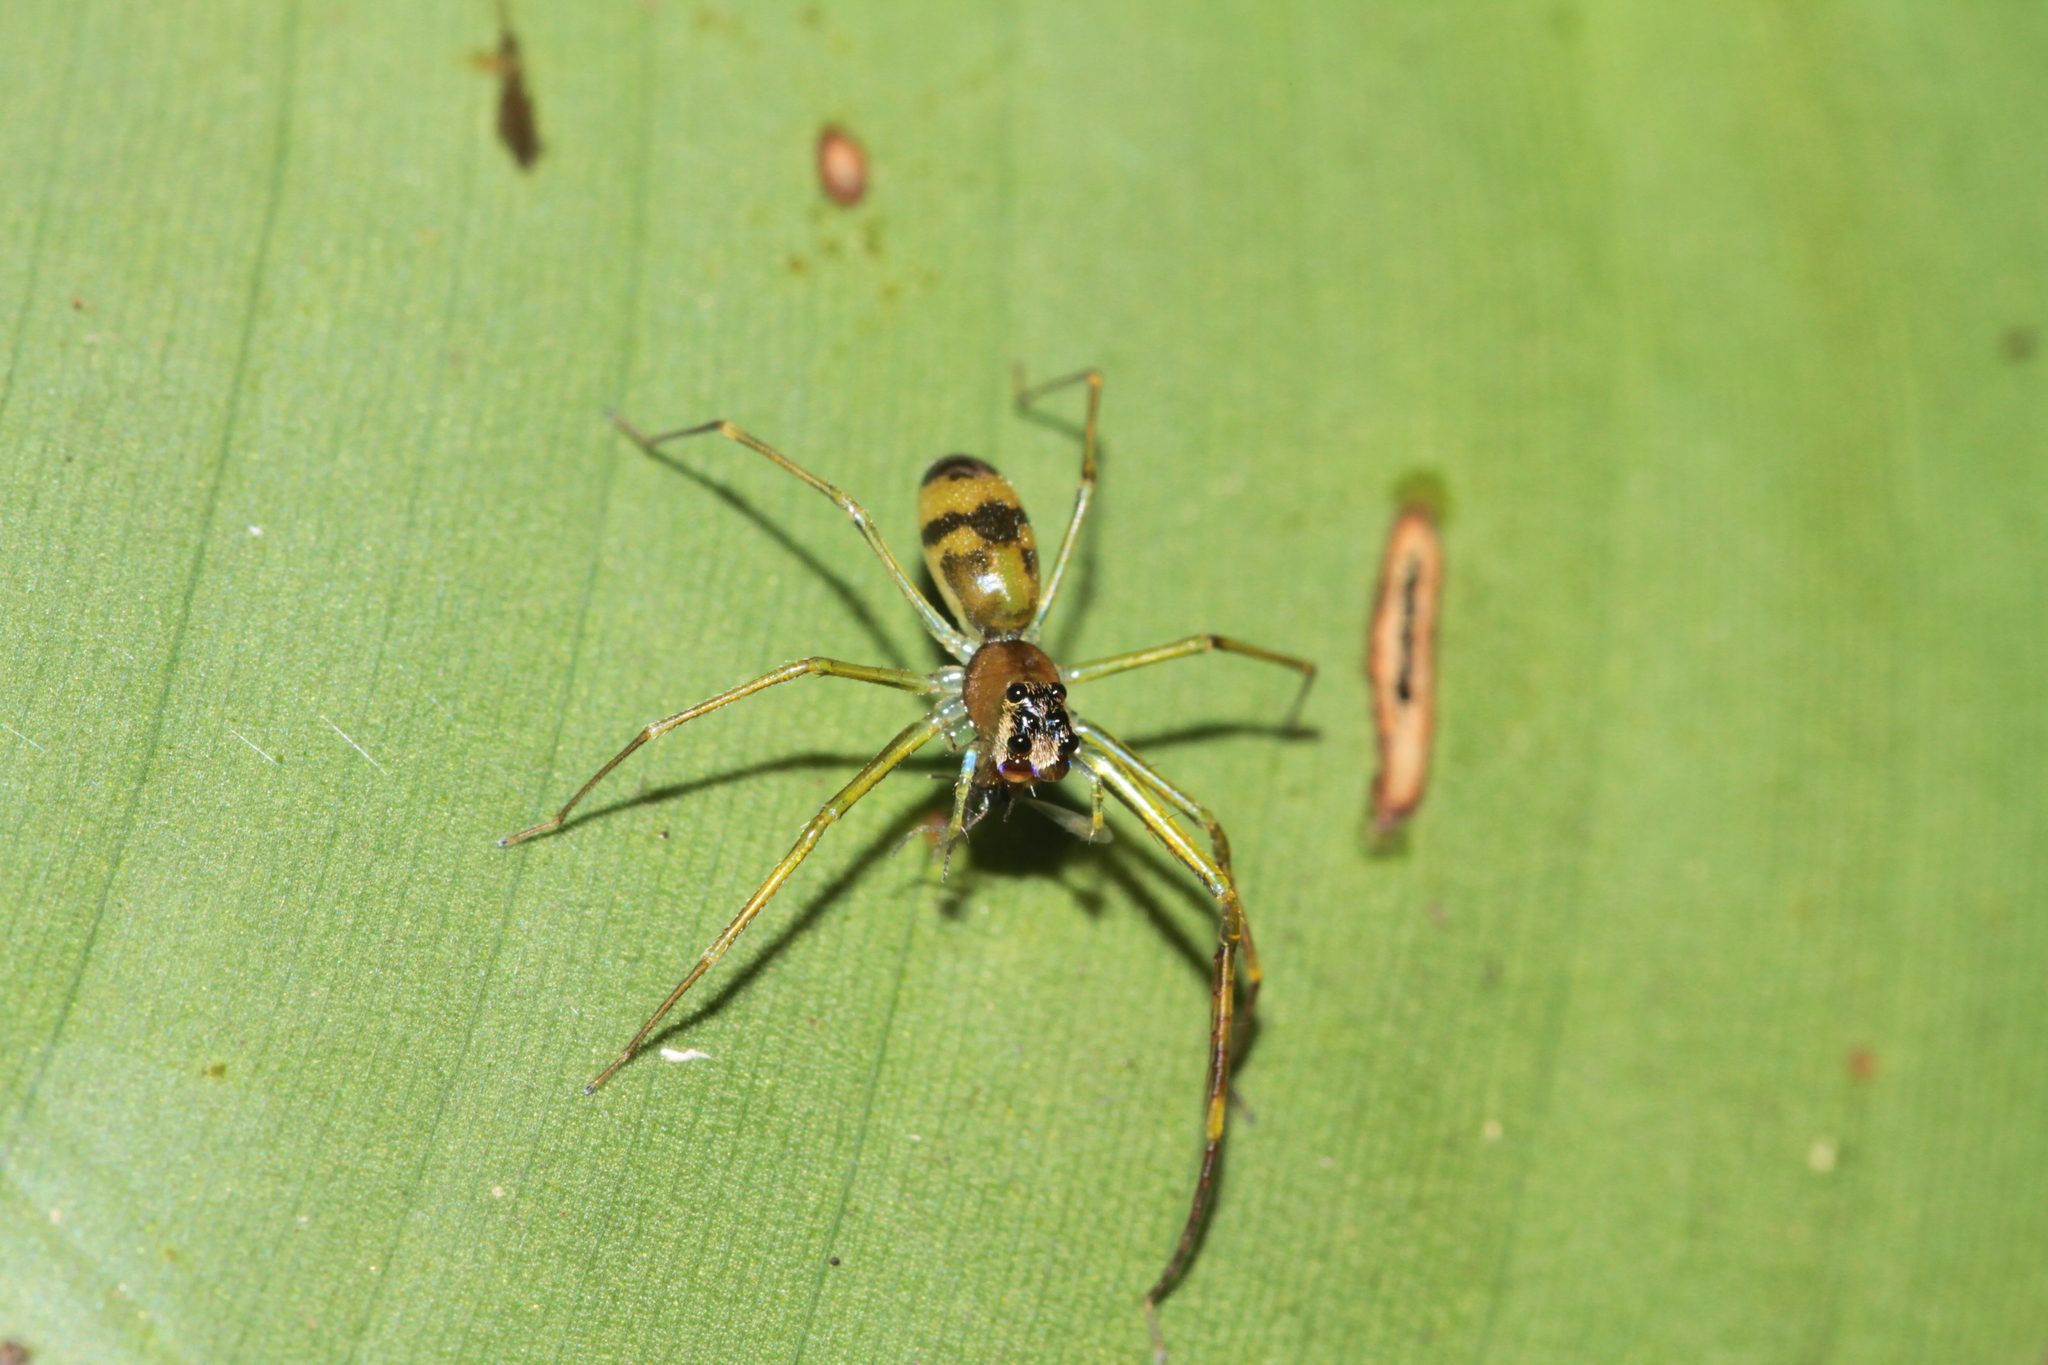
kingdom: Animalia
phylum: Arthropoda
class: Arachnida
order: Araneae
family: Salticidae
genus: Lyssomanes
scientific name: Lyssomanes longipes
